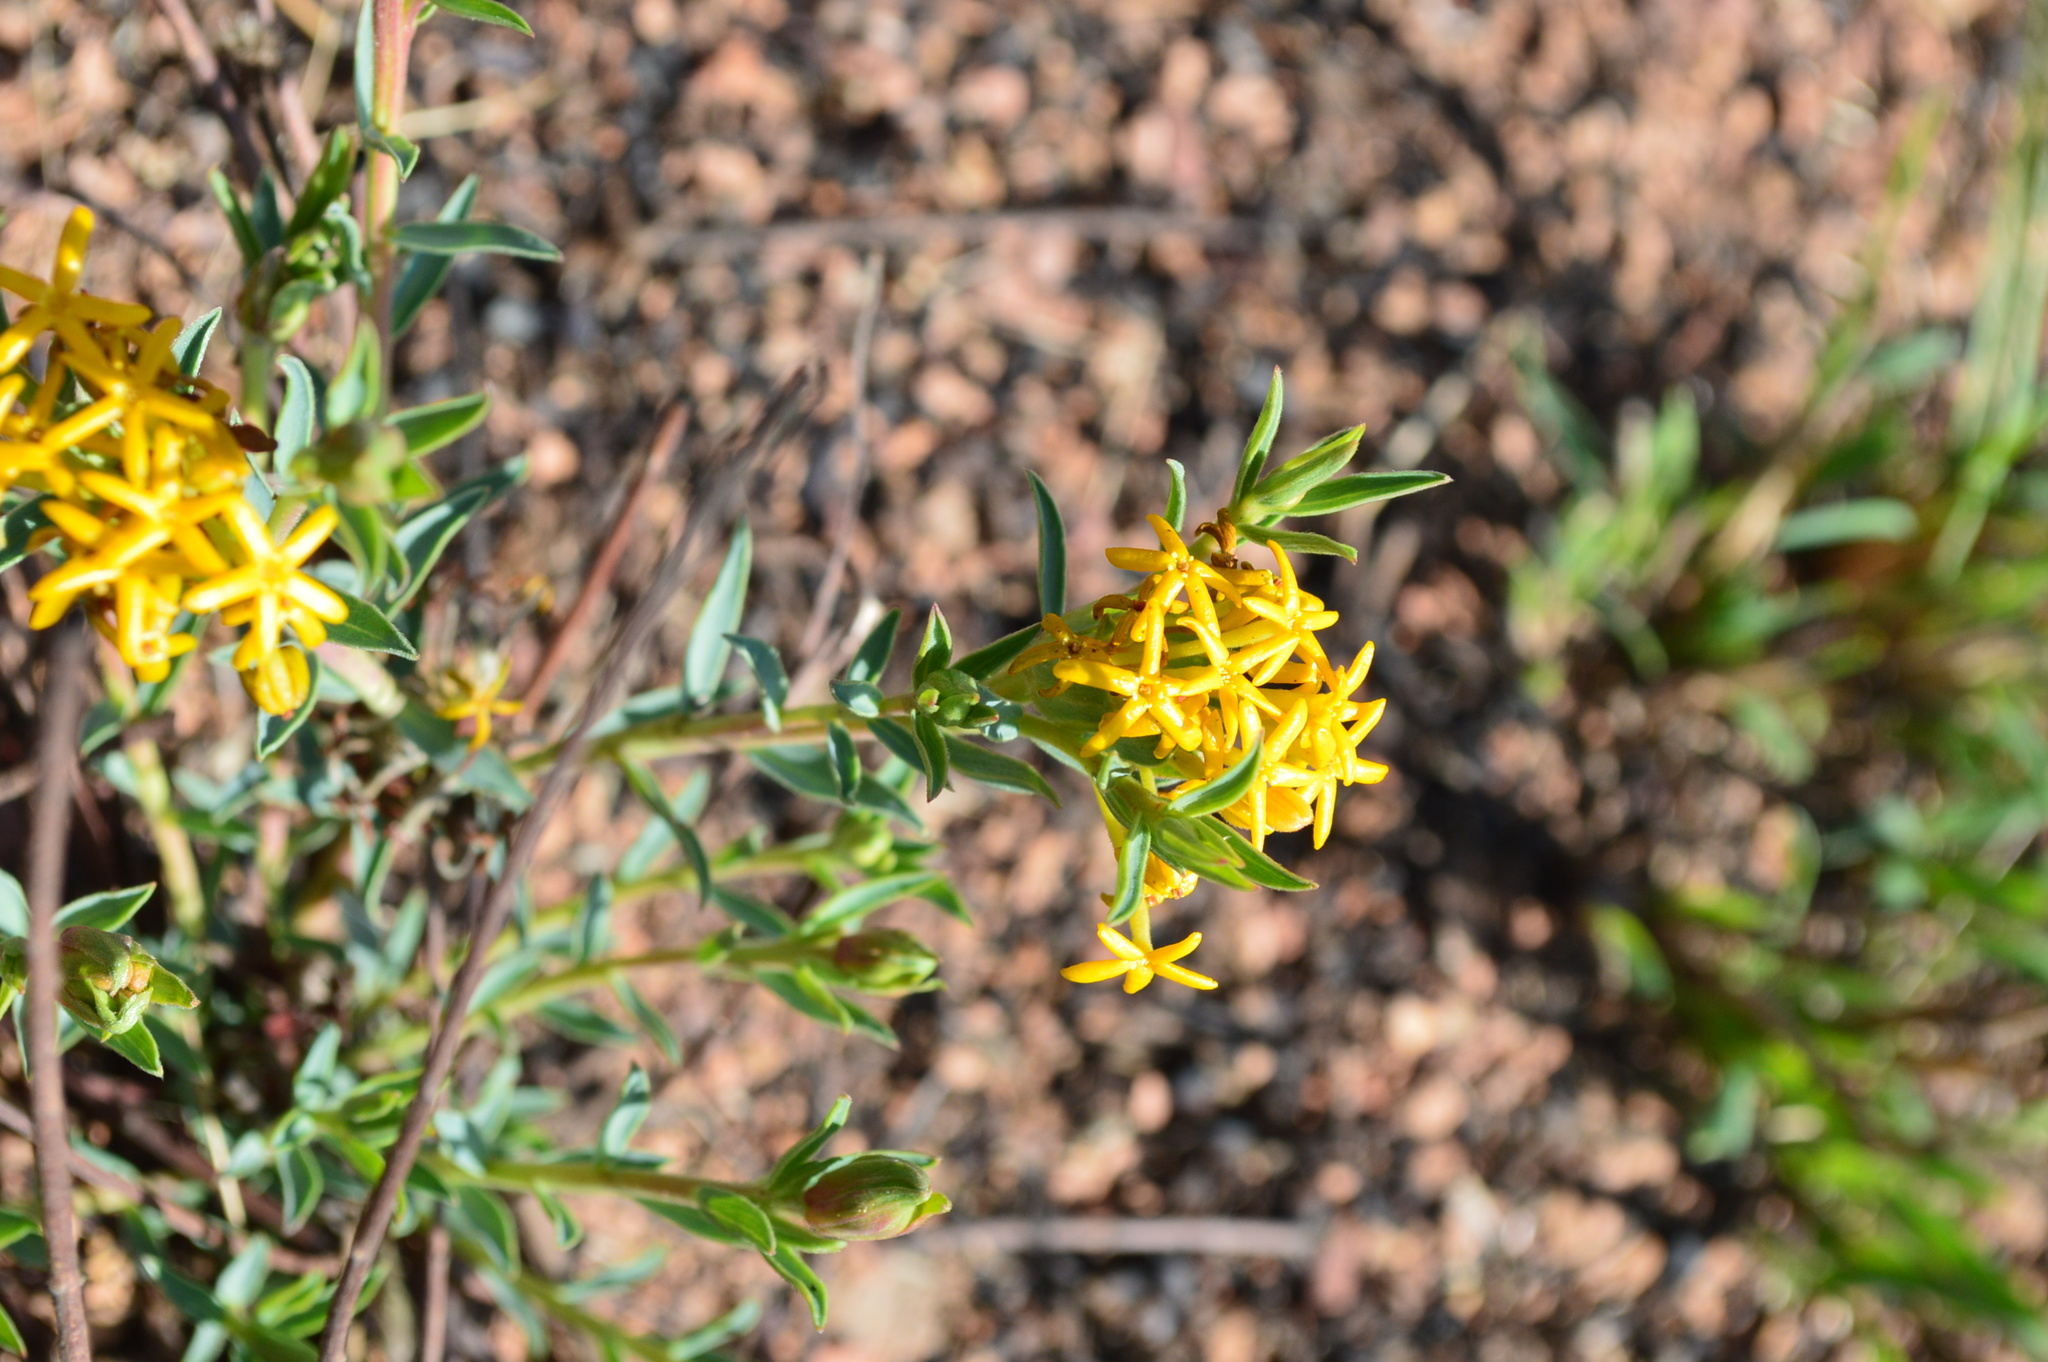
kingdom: Plantae
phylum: Tracheophyta
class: Magnoliopsida
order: Malvales
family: Thymelaeaceae
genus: Gnidia
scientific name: Gnidia capitata
